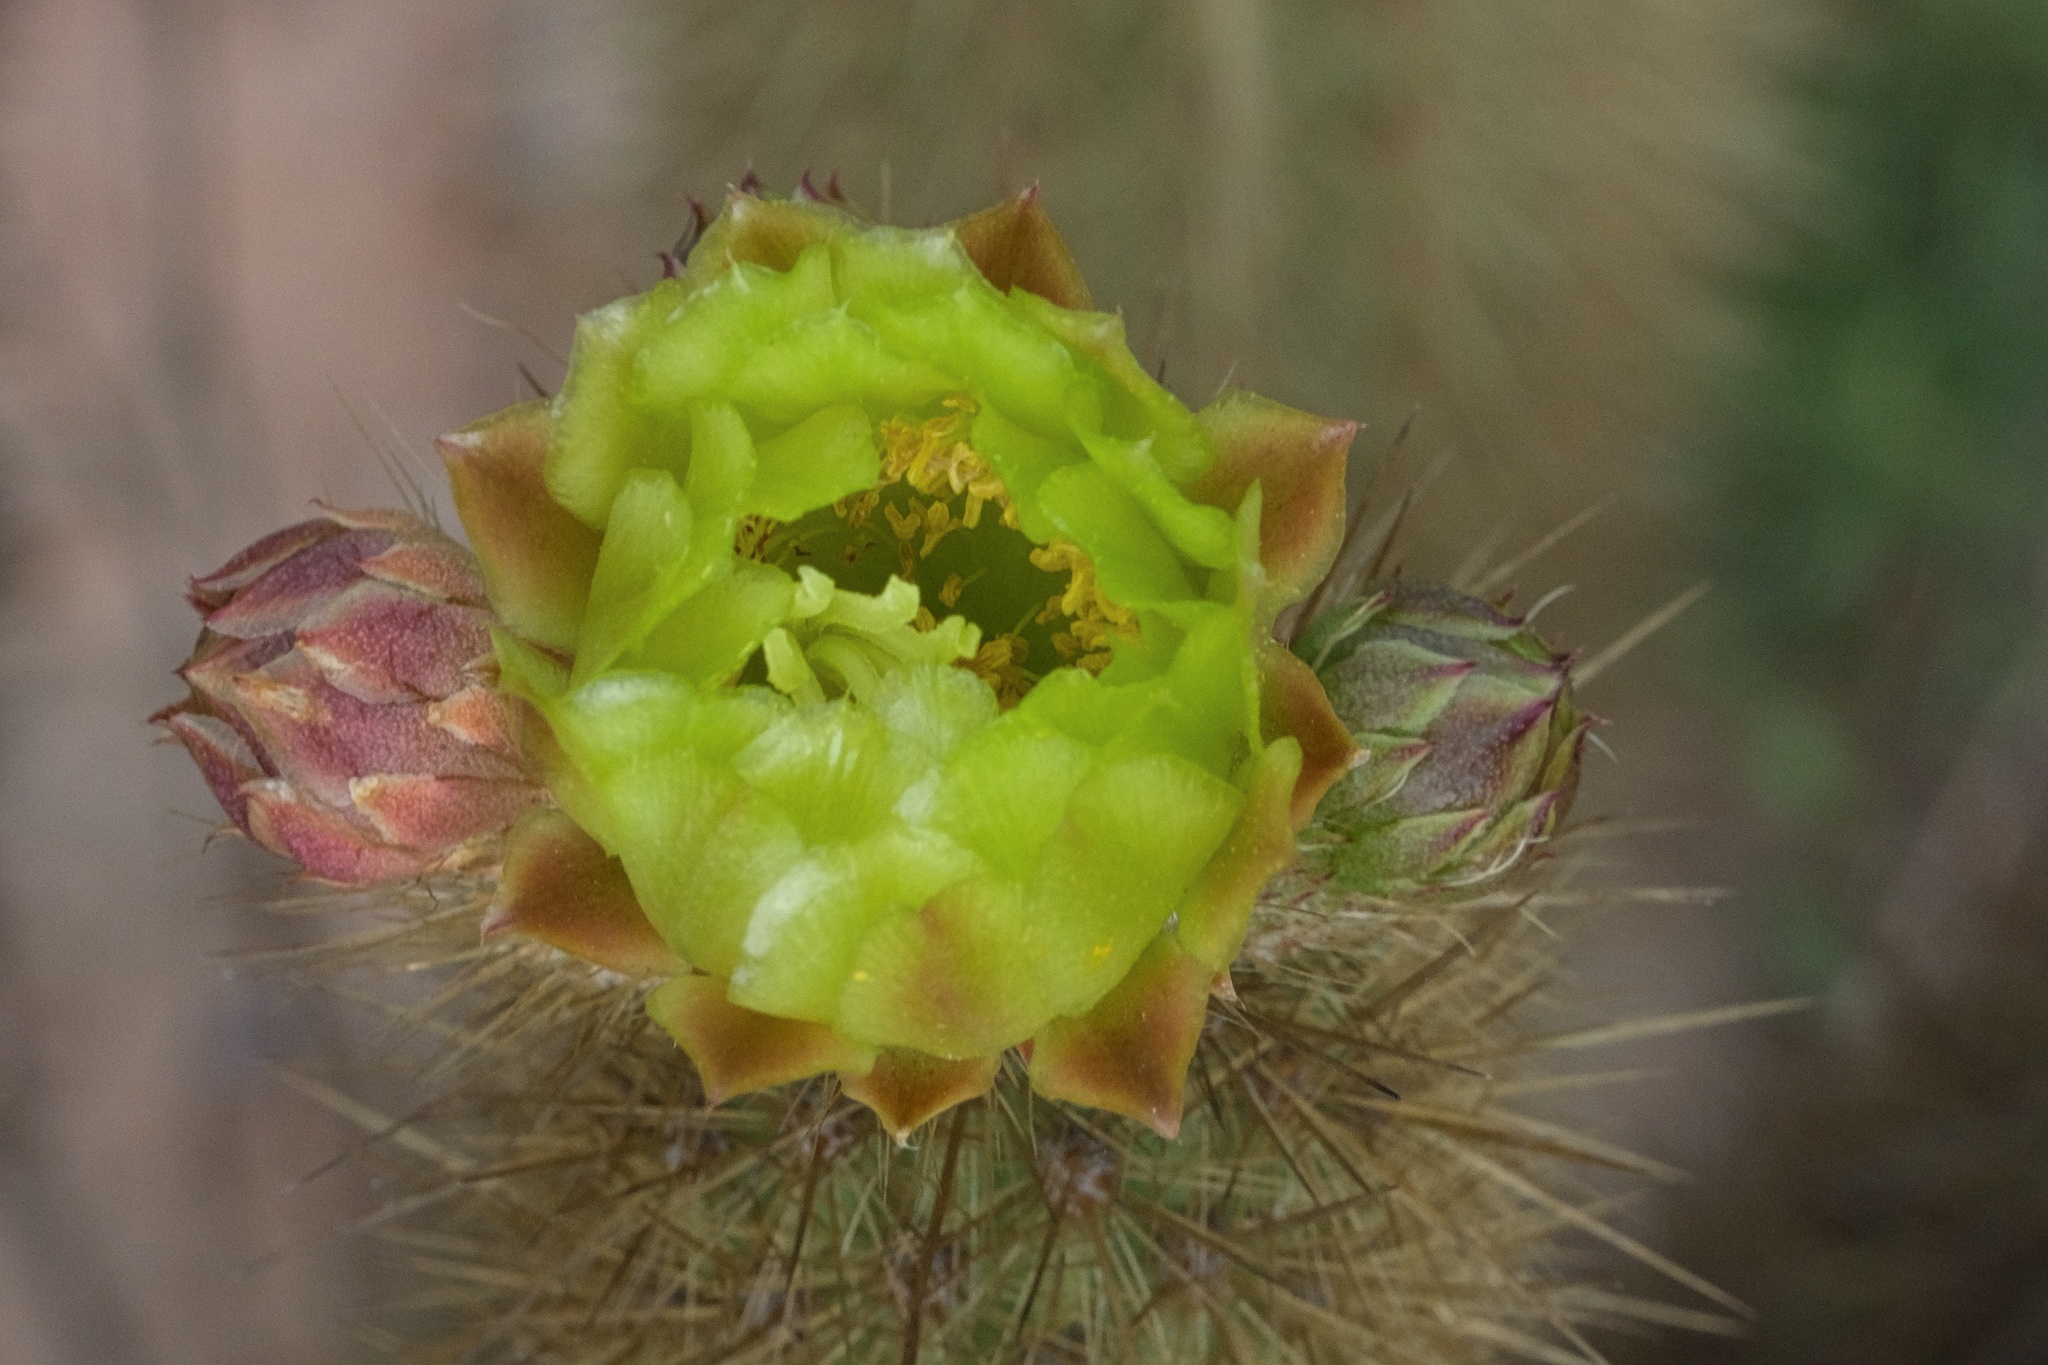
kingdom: Plantae
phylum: Tracheophyta
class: Magnoliopsida
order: Caryophyllales
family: Cactaceae
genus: Bergerocactus
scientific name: Bergerocactus emoryi
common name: Golden snakecactus
